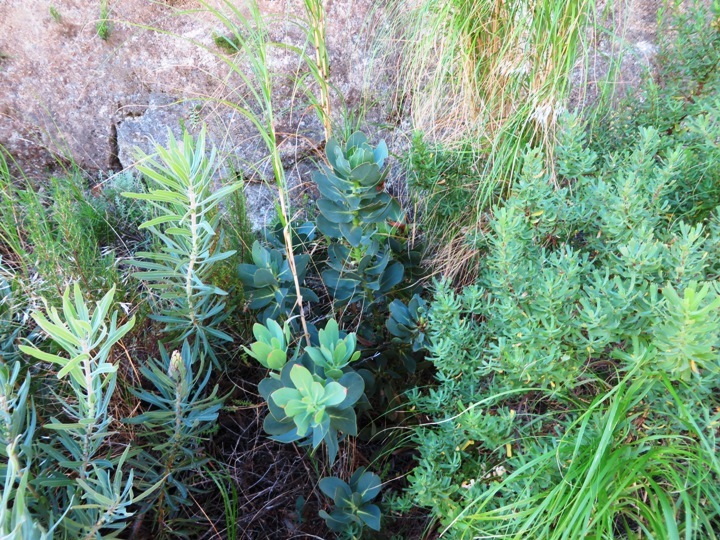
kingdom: Plantae
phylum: Tracheophyta
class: Magnoliopsida
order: Proteales
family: Proteaceae
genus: Protea
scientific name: Protea grandiceps
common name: Red sugarbush
